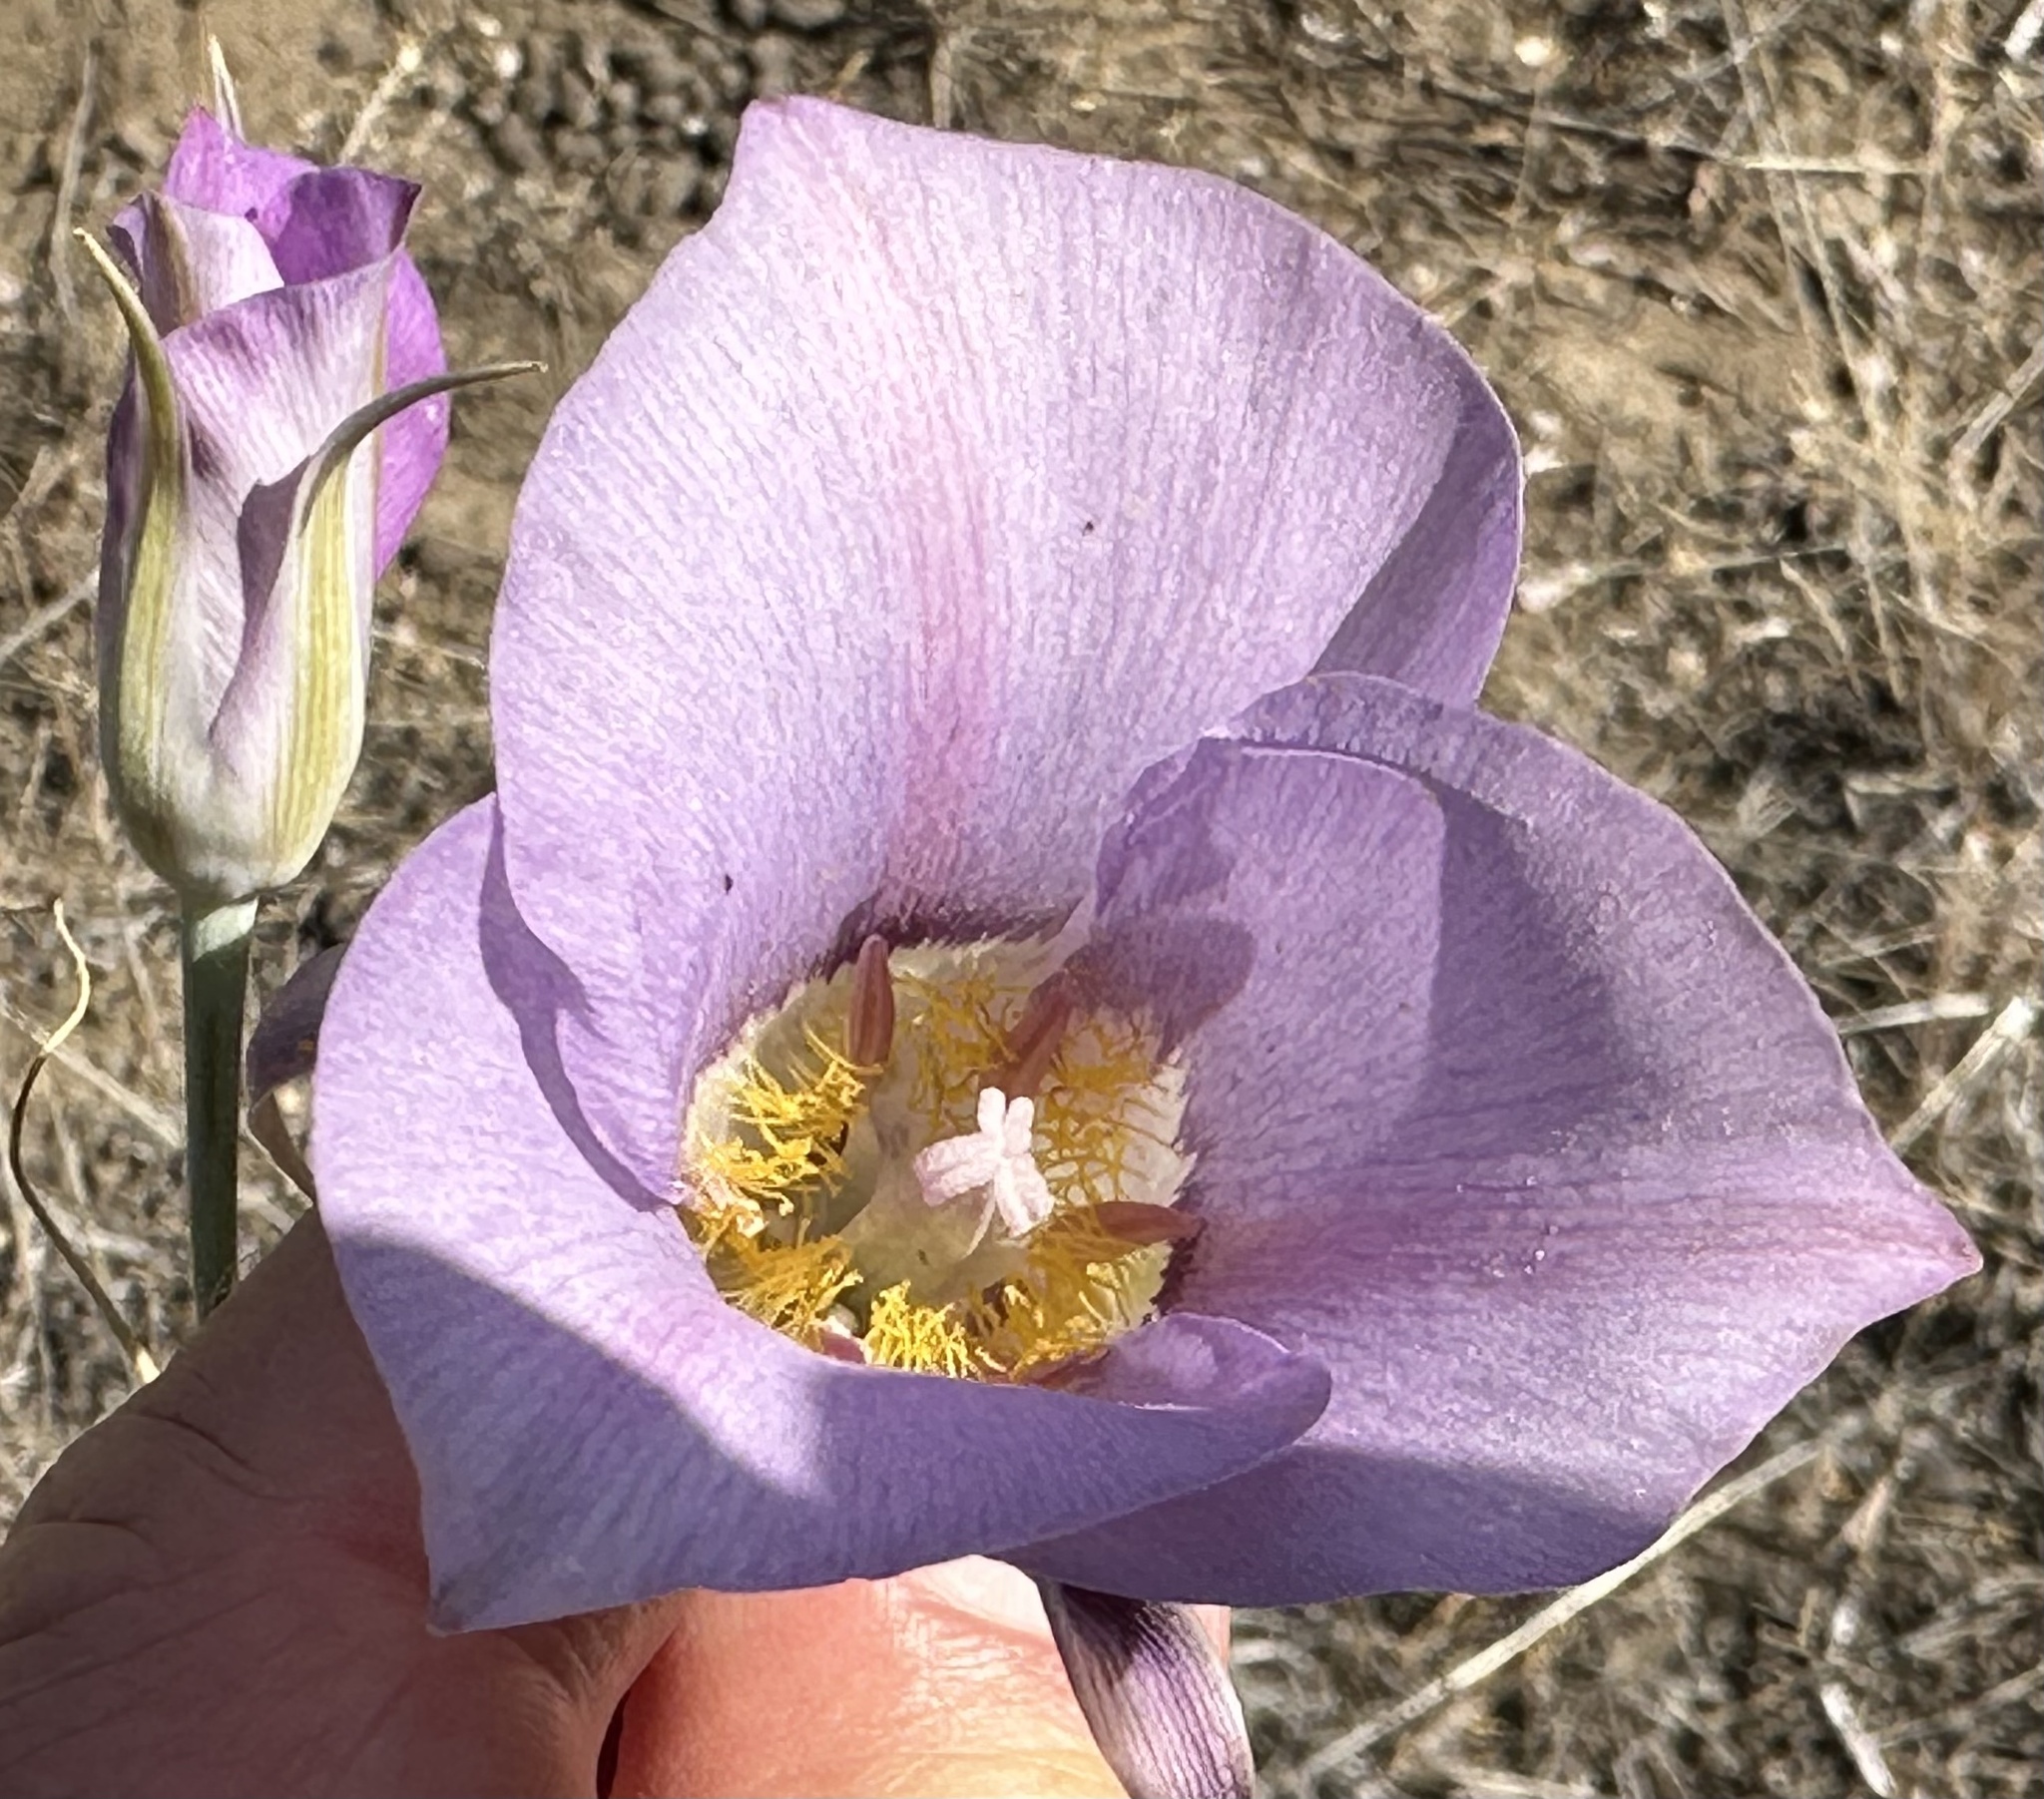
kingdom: Plantae
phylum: Tracheophyta
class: Liliopsida
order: Liliales
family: Liliaceae
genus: Calochortus
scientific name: Calochortus macrocarpus
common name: Green-band mariposa lily
